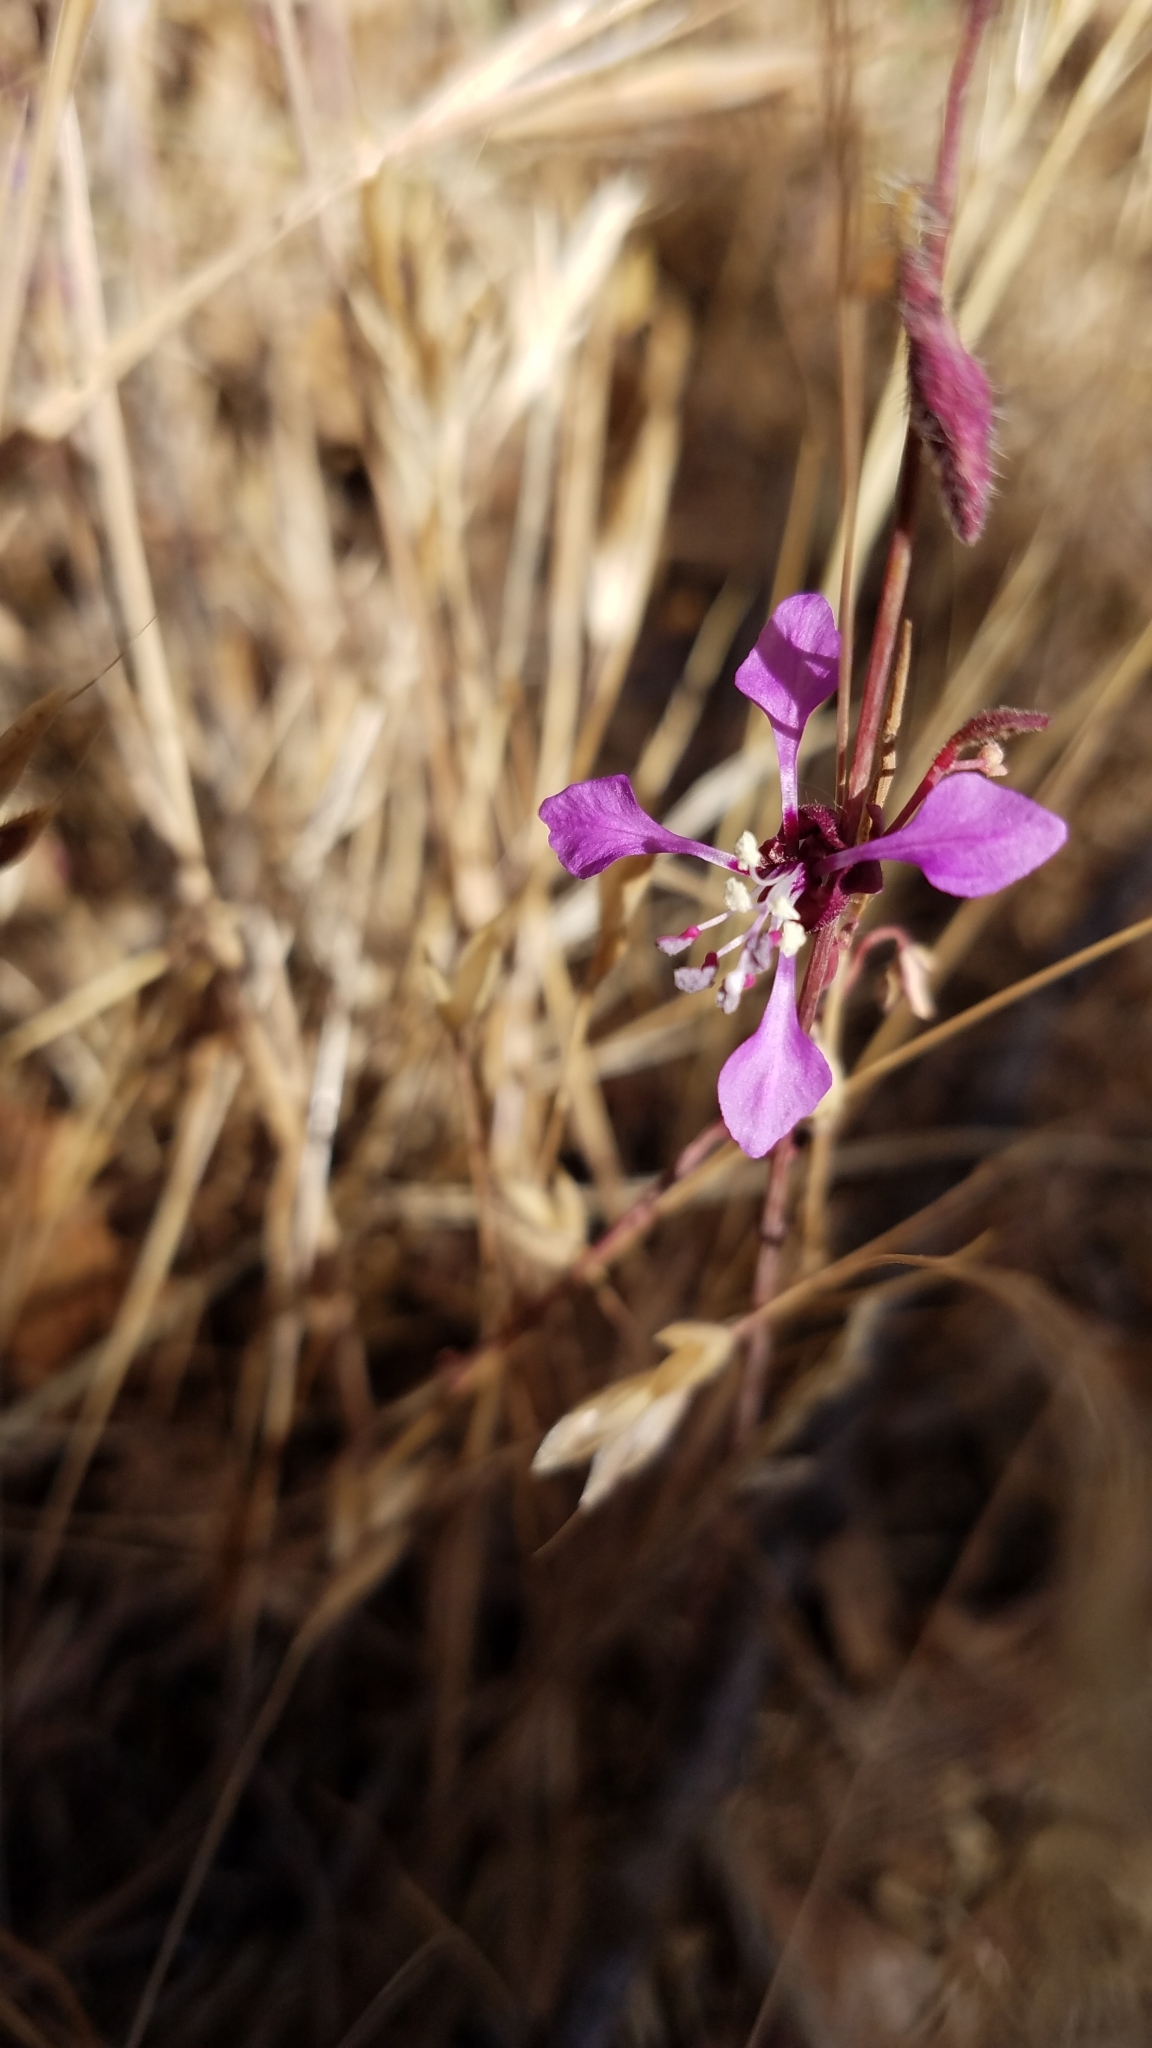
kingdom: Plantae
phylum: Tracheophyta
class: Magnoliopsida
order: Myrtales
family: Onagraceae
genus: Clarkia
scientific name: Clarkia unguiculata
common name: Clarkia
